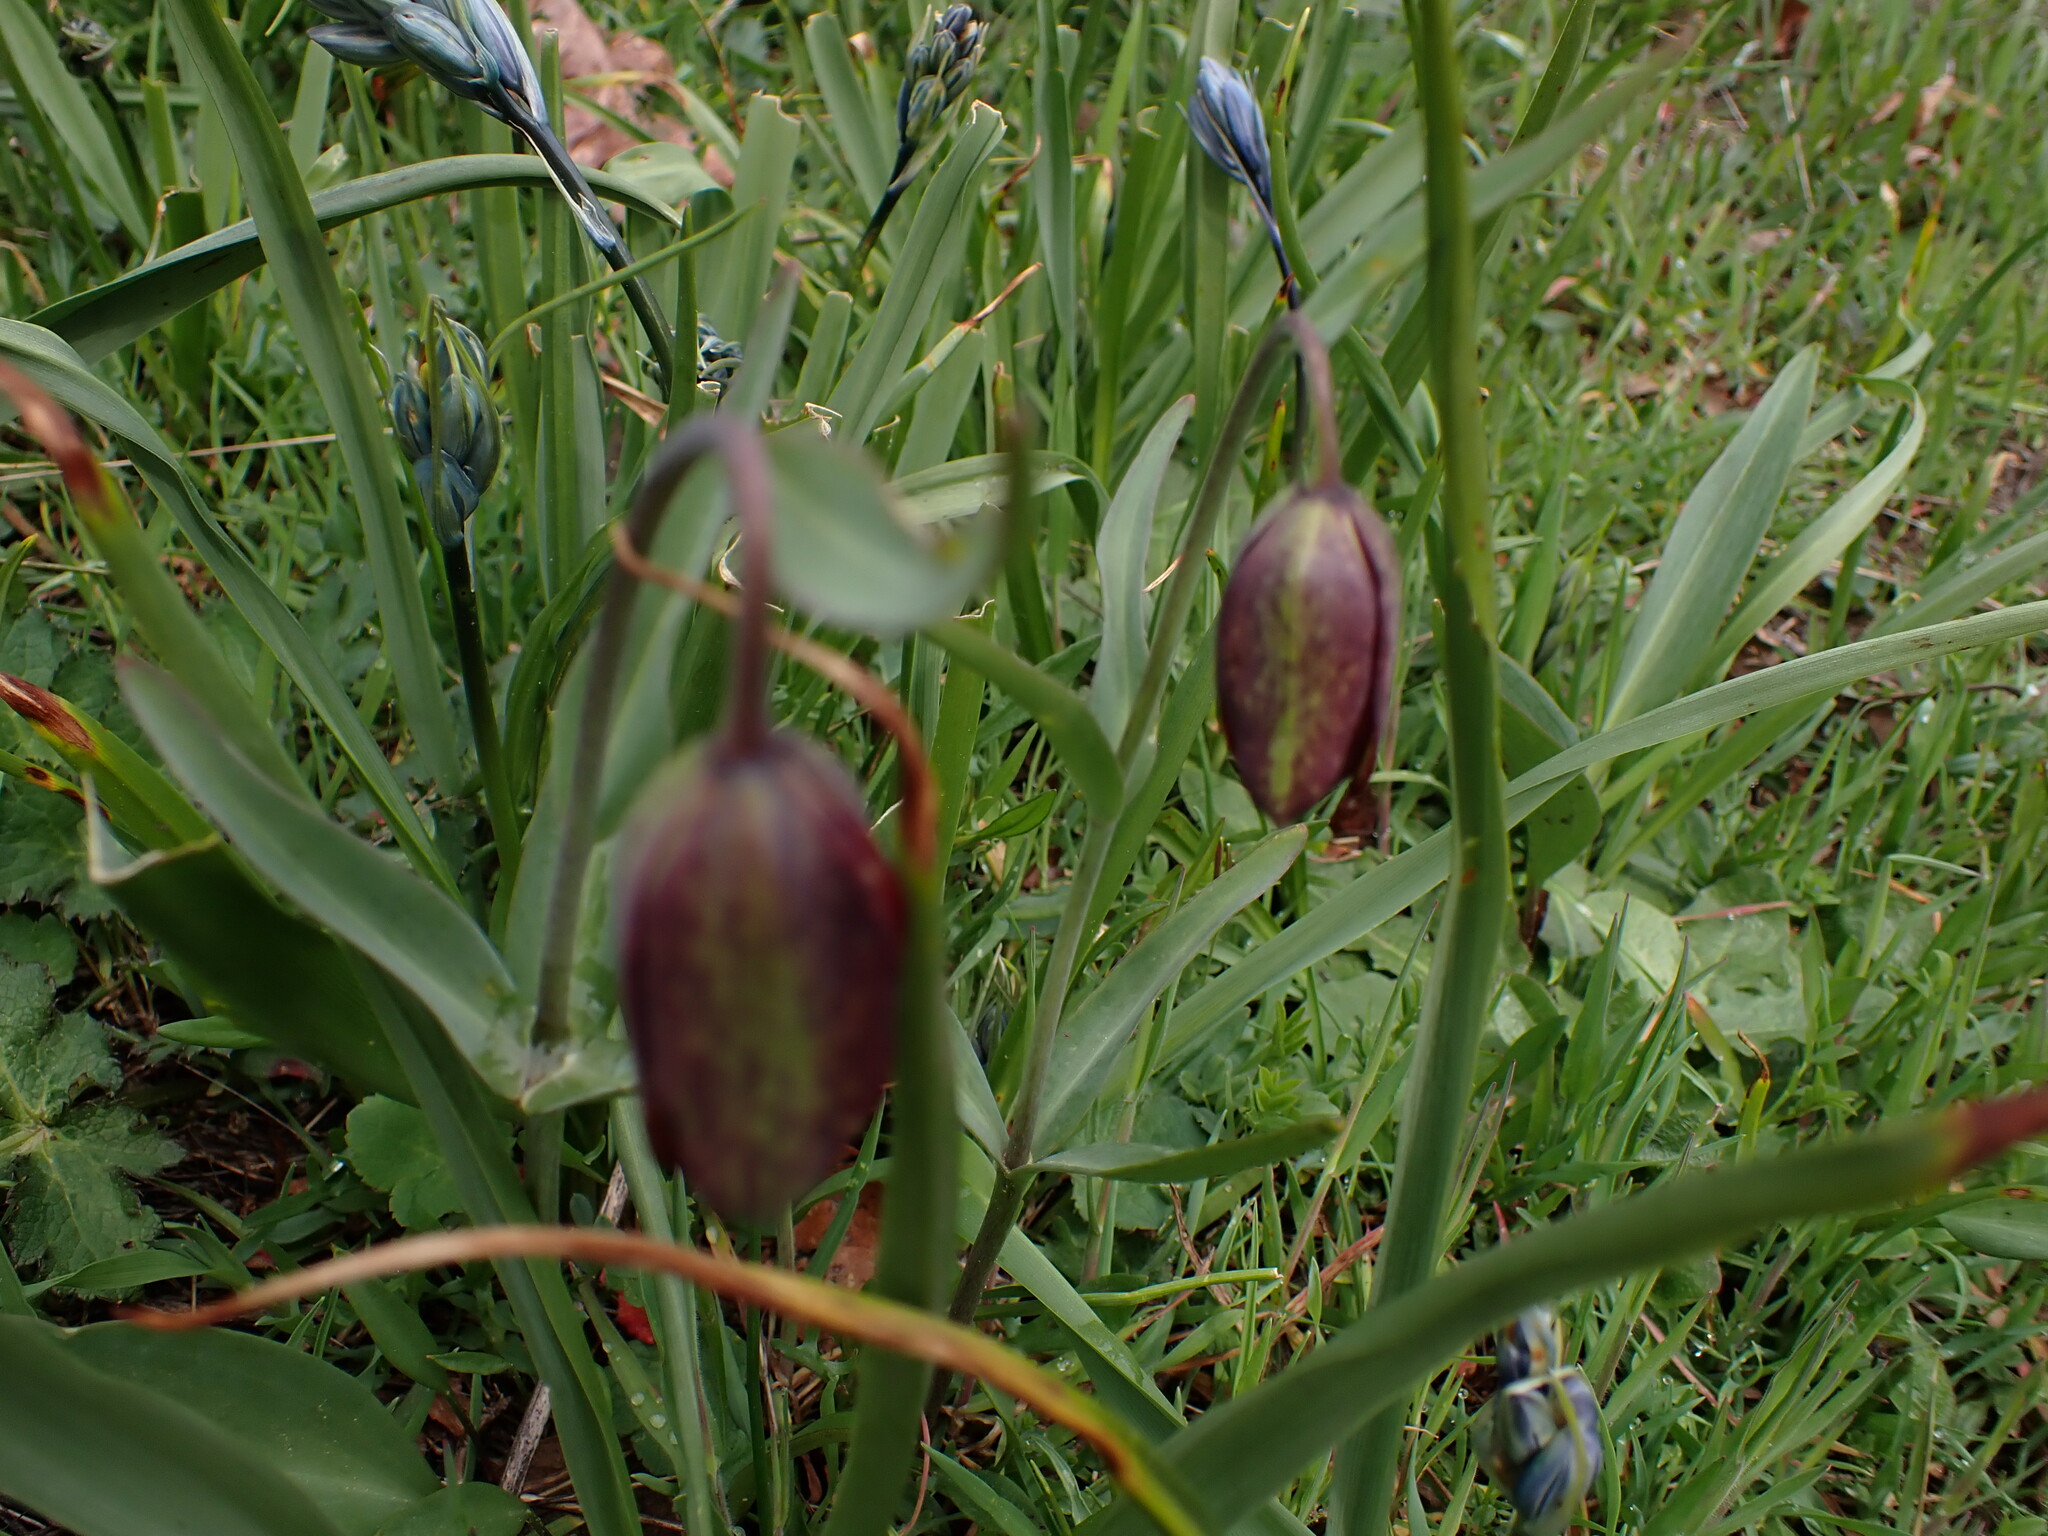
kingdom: Plantae
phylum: Tracheophyta
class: Liliopsida
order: Liliales
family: Liliaceae
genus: Fritillaria
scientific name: Fritillaria affinis
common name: Ojai fritillary
